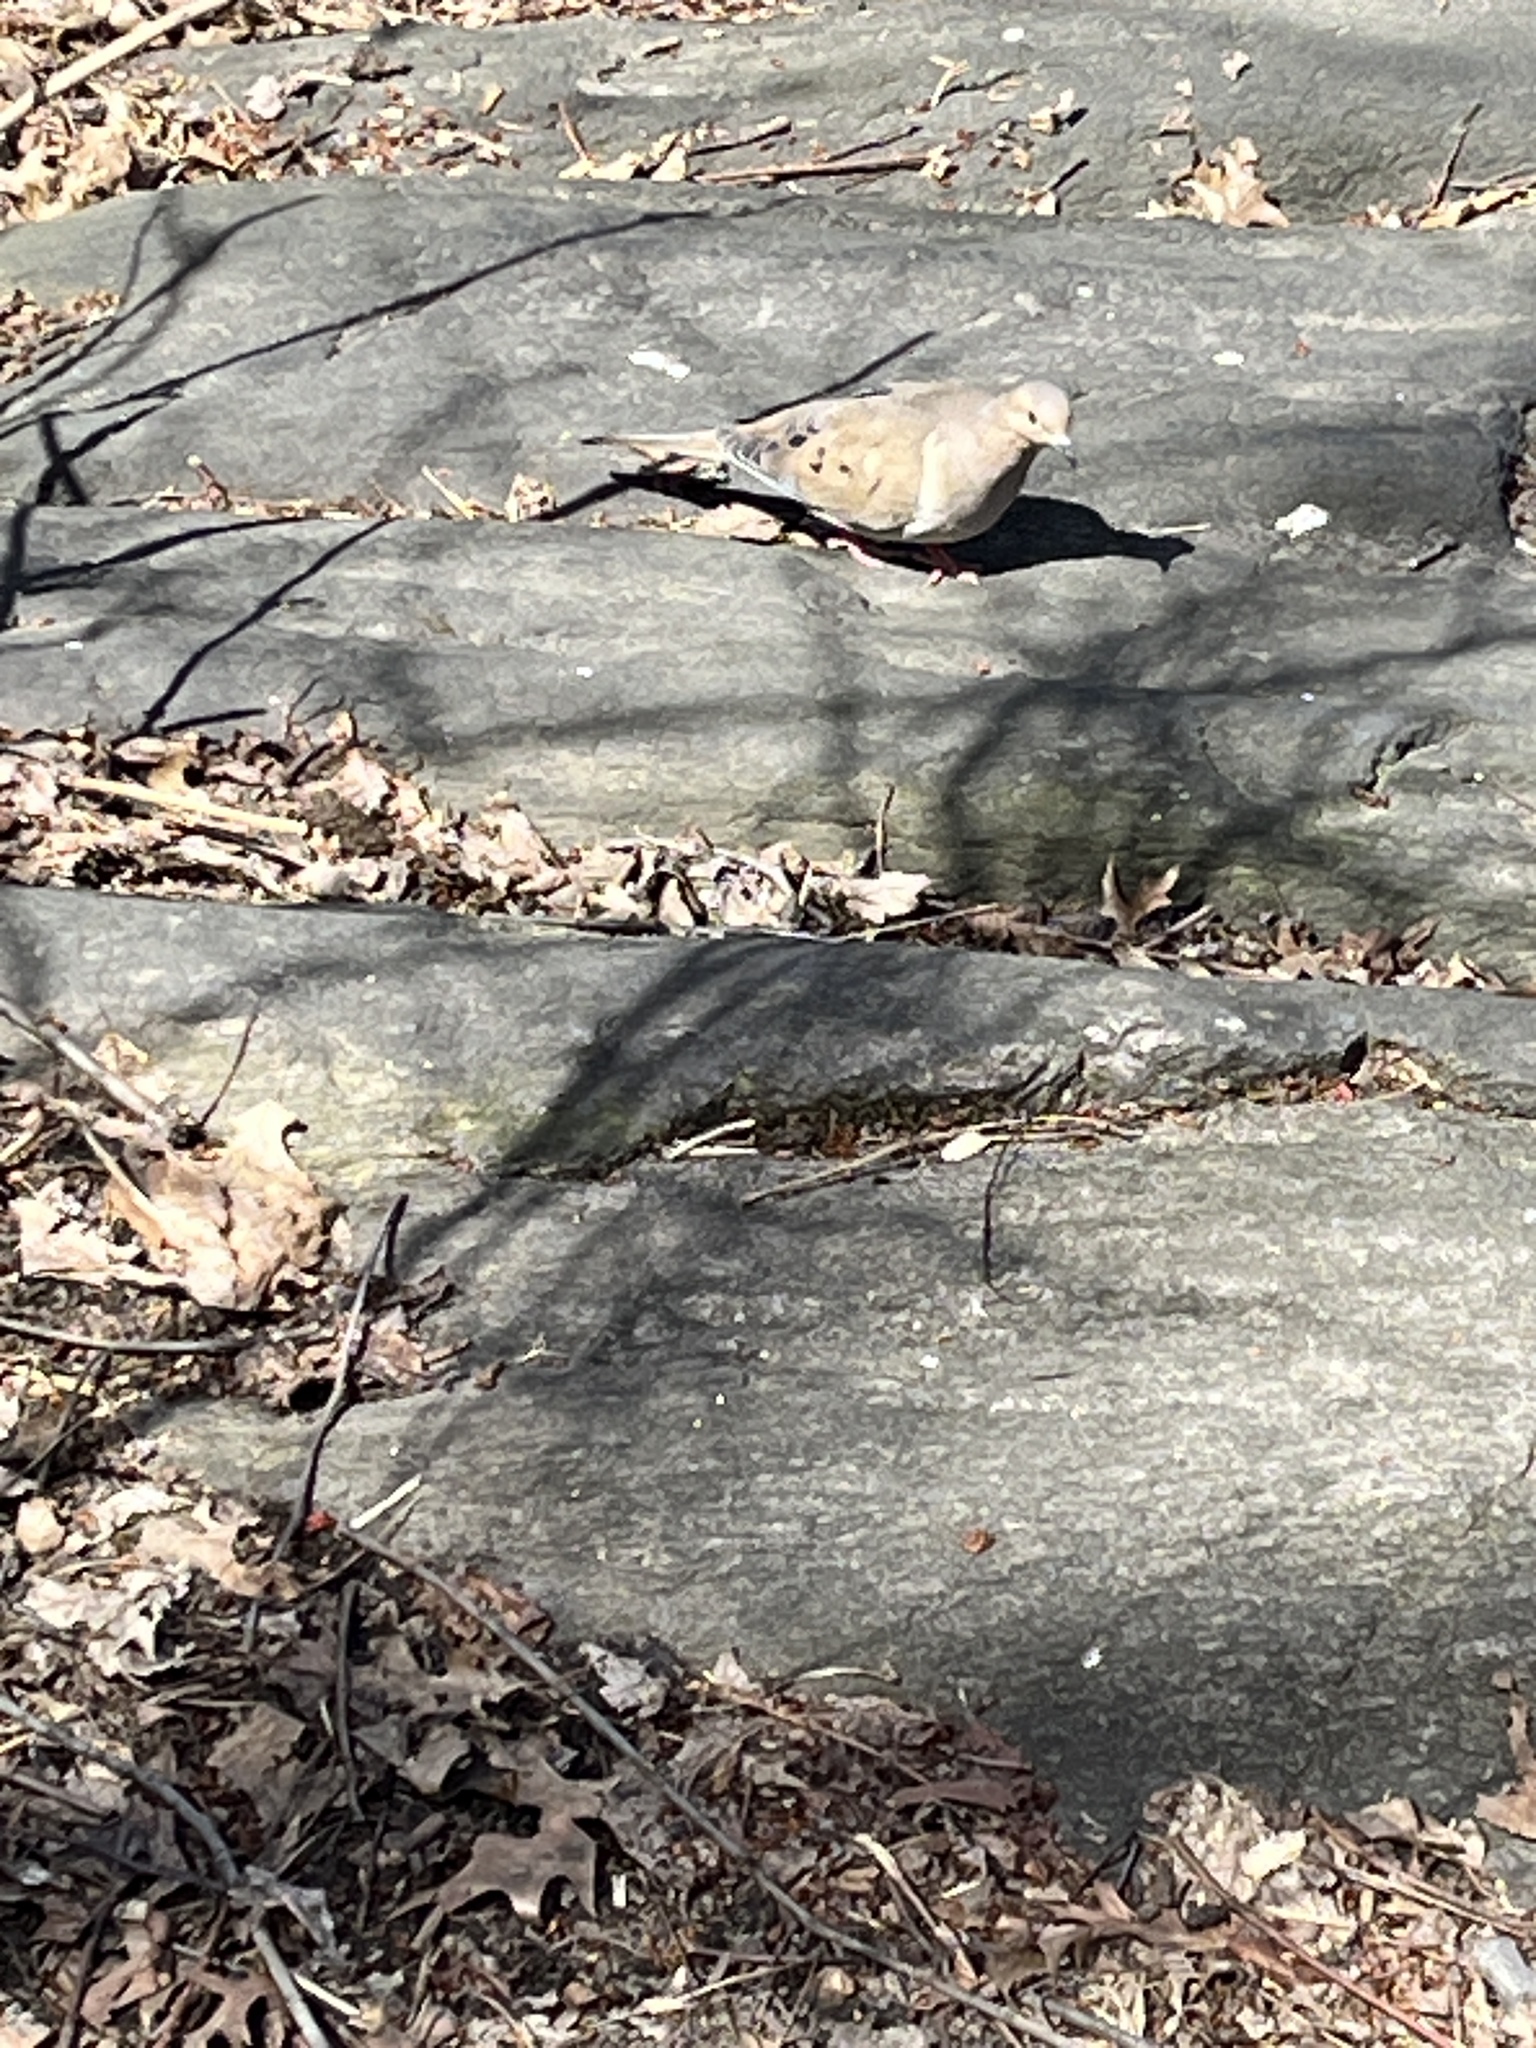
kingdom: Animalia
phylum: Chordata
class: Aves
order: Columbiformes
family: Columbidae
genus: Zenaida
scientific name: Zenaida macroura
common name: Mourning dove
